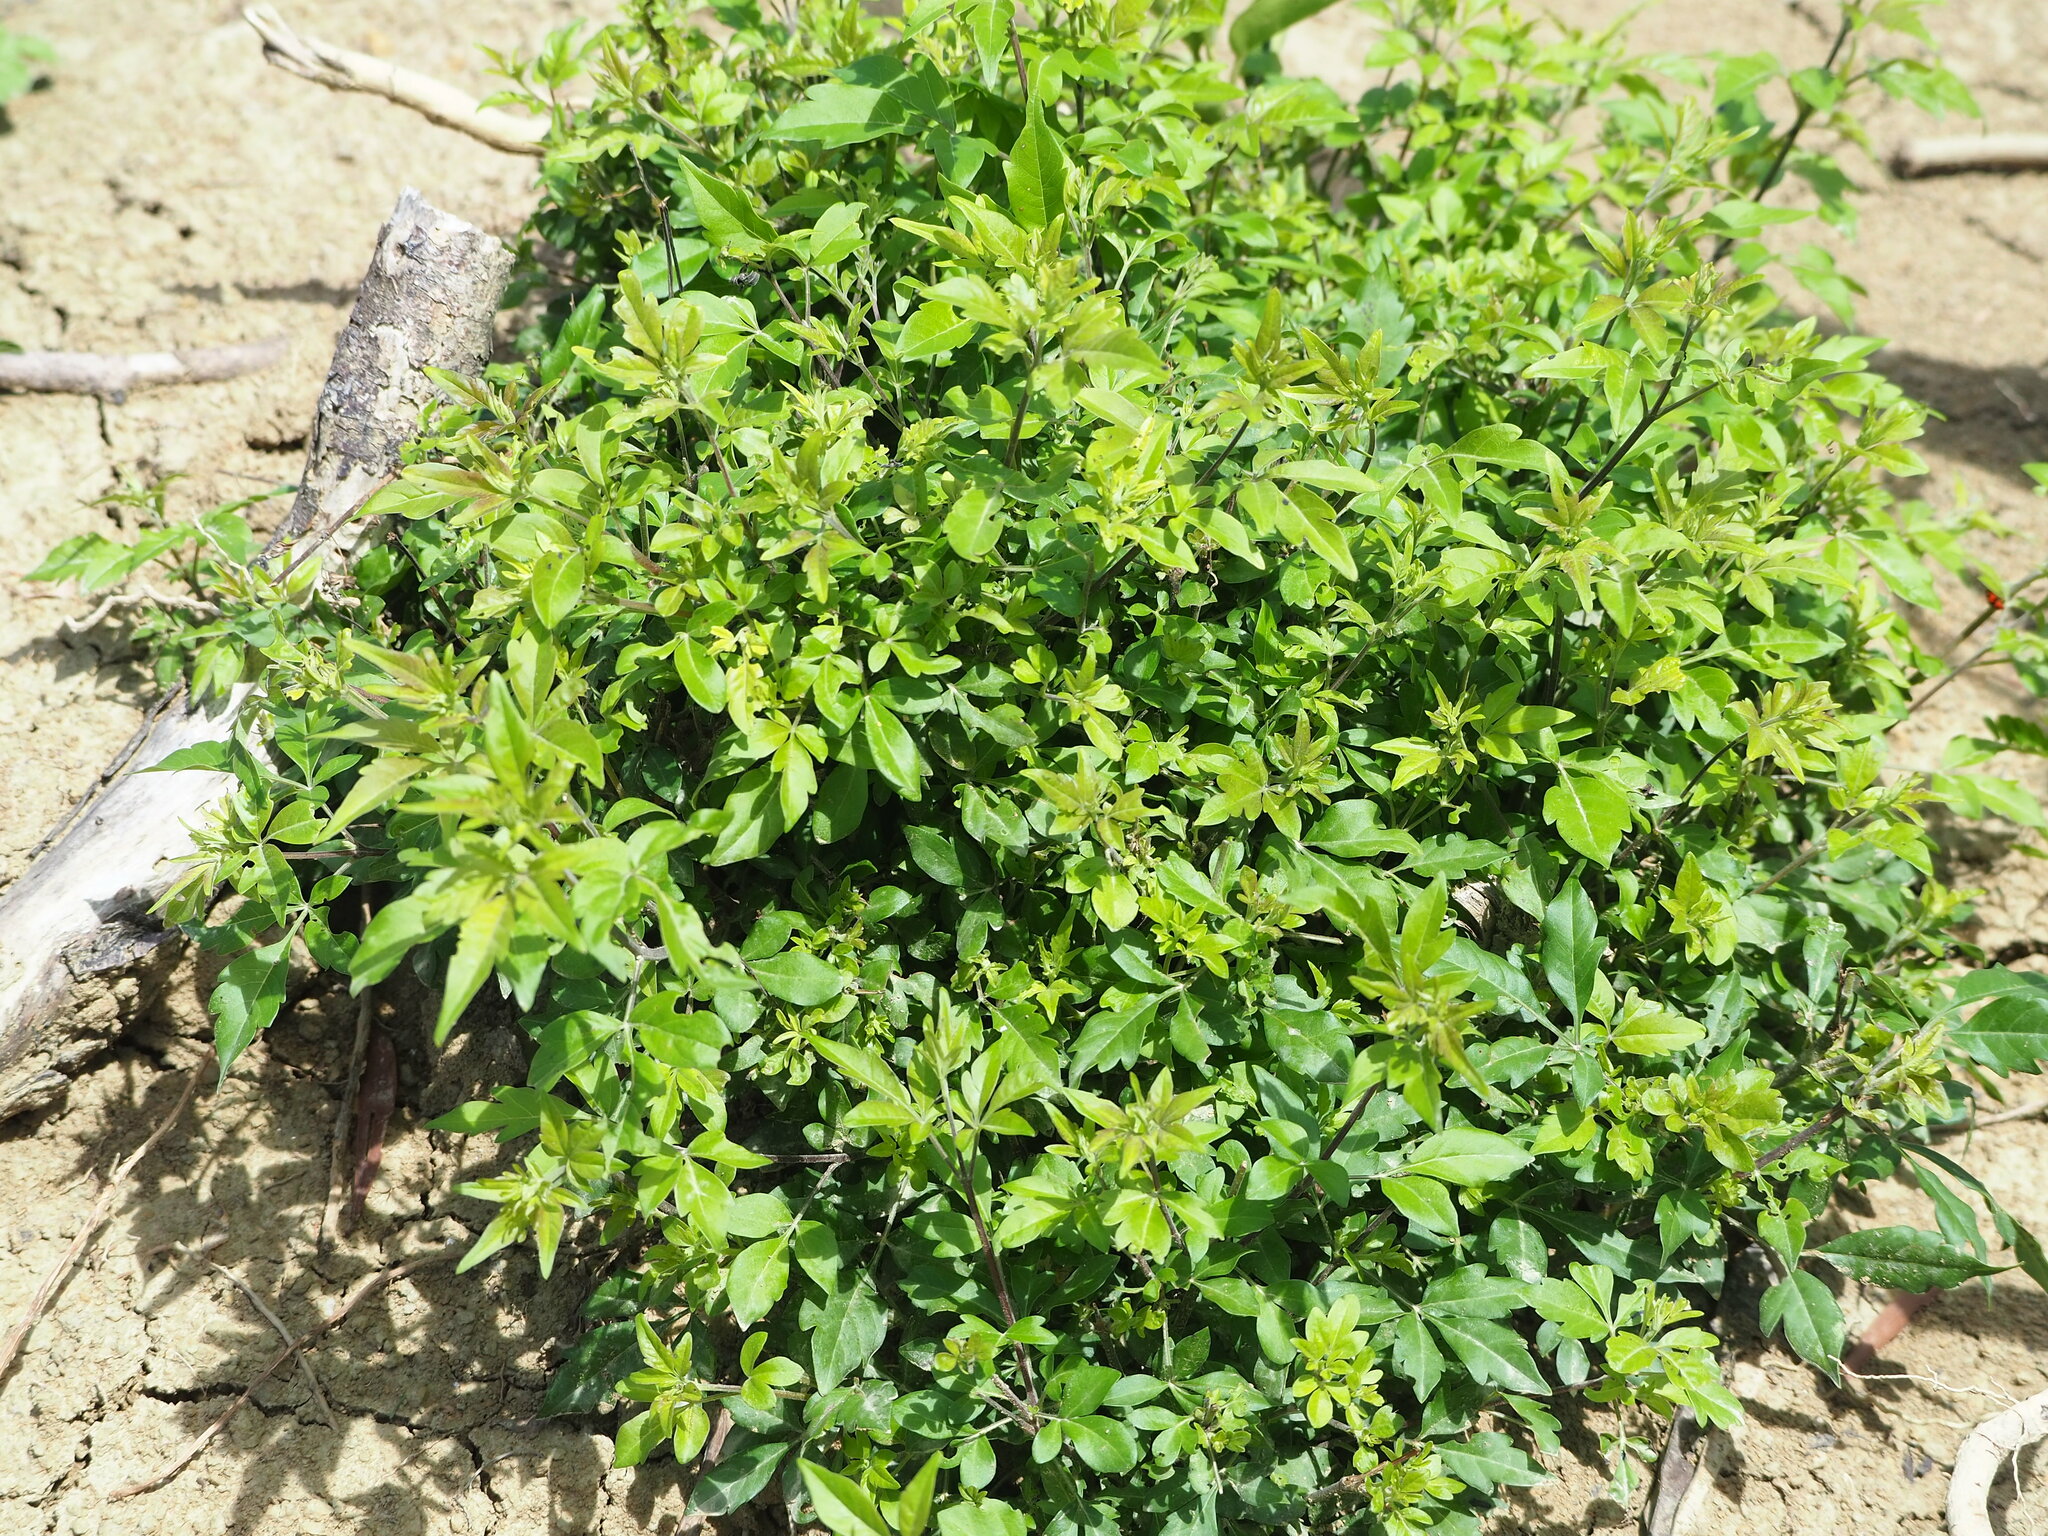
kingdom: Plantae
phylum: Tracheophyta
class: Magnoliopsida
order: Lamiales
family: Lamiaceae
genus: Vitex
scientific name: Vitex negundo
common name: Chinese chastetree
